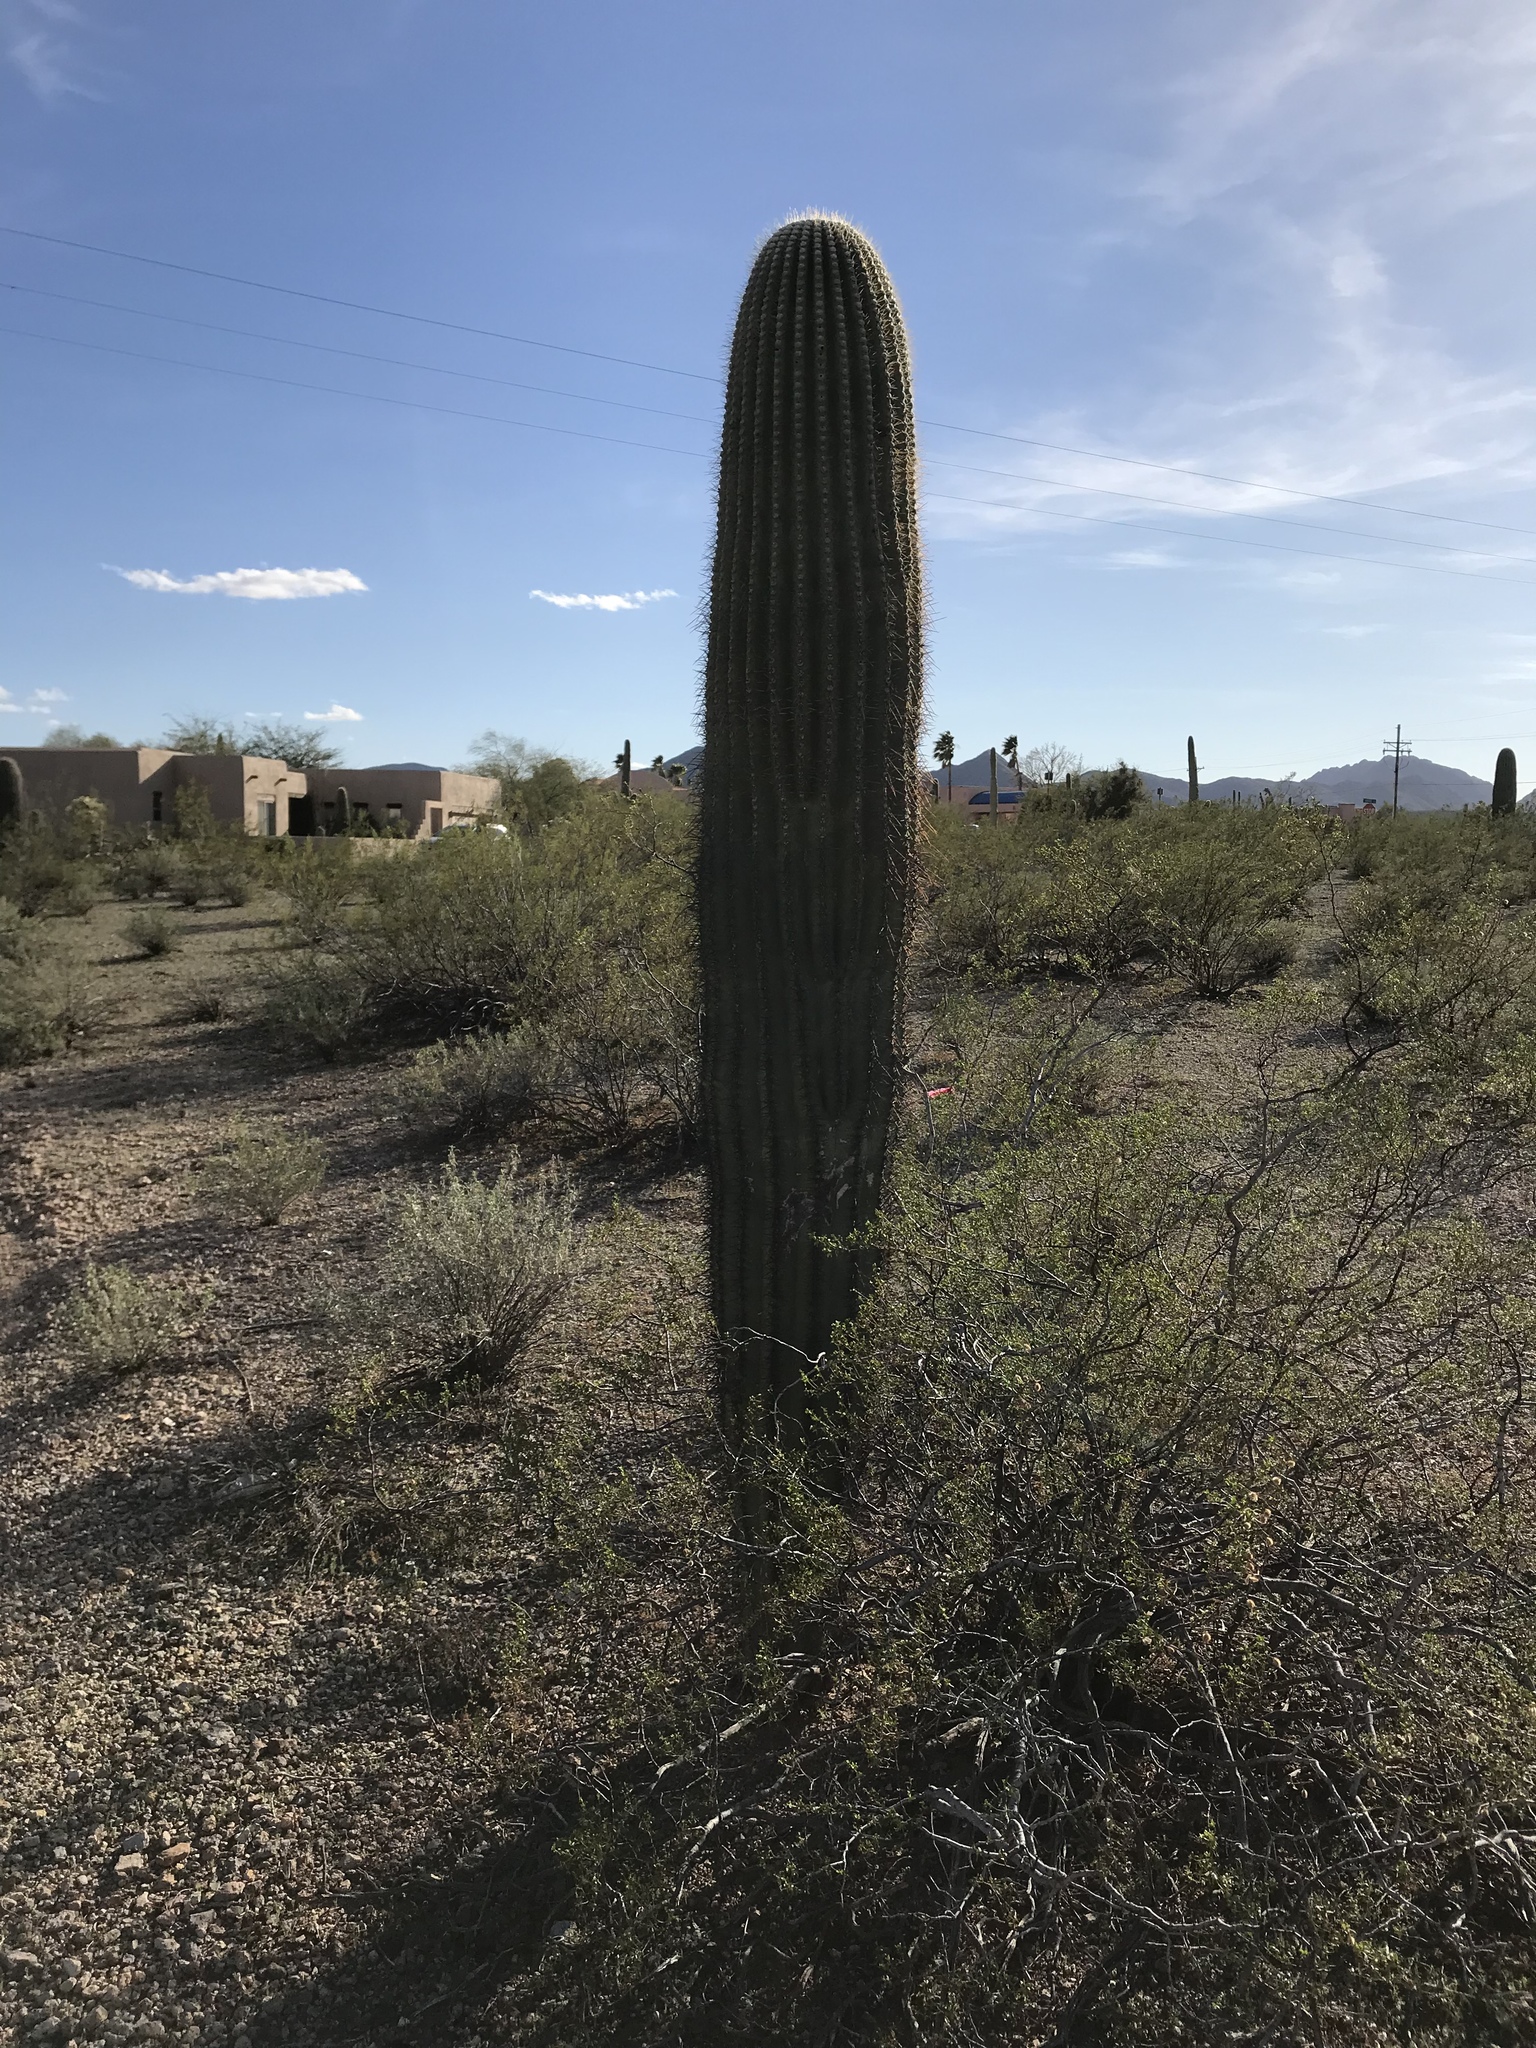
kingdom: Plantae
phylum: Tracheophyta
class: Magnoliopsida
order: Caryophyllales
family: Cactaceae
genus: Carnegiea
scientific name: Carnegiea gigantea
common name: Saguaro
